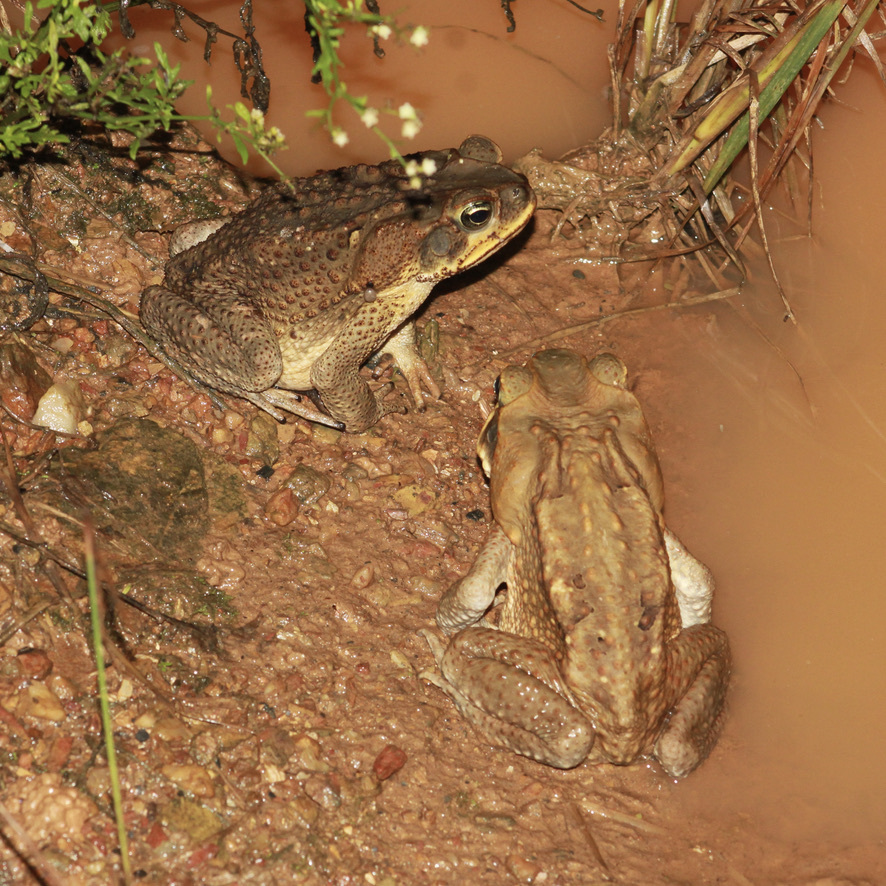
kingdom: Animalia
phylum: Chordata
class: Amphibia
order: Anura
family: Bufonidae
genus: Rhinella
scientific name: Rhinella marina
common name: Cane toad
